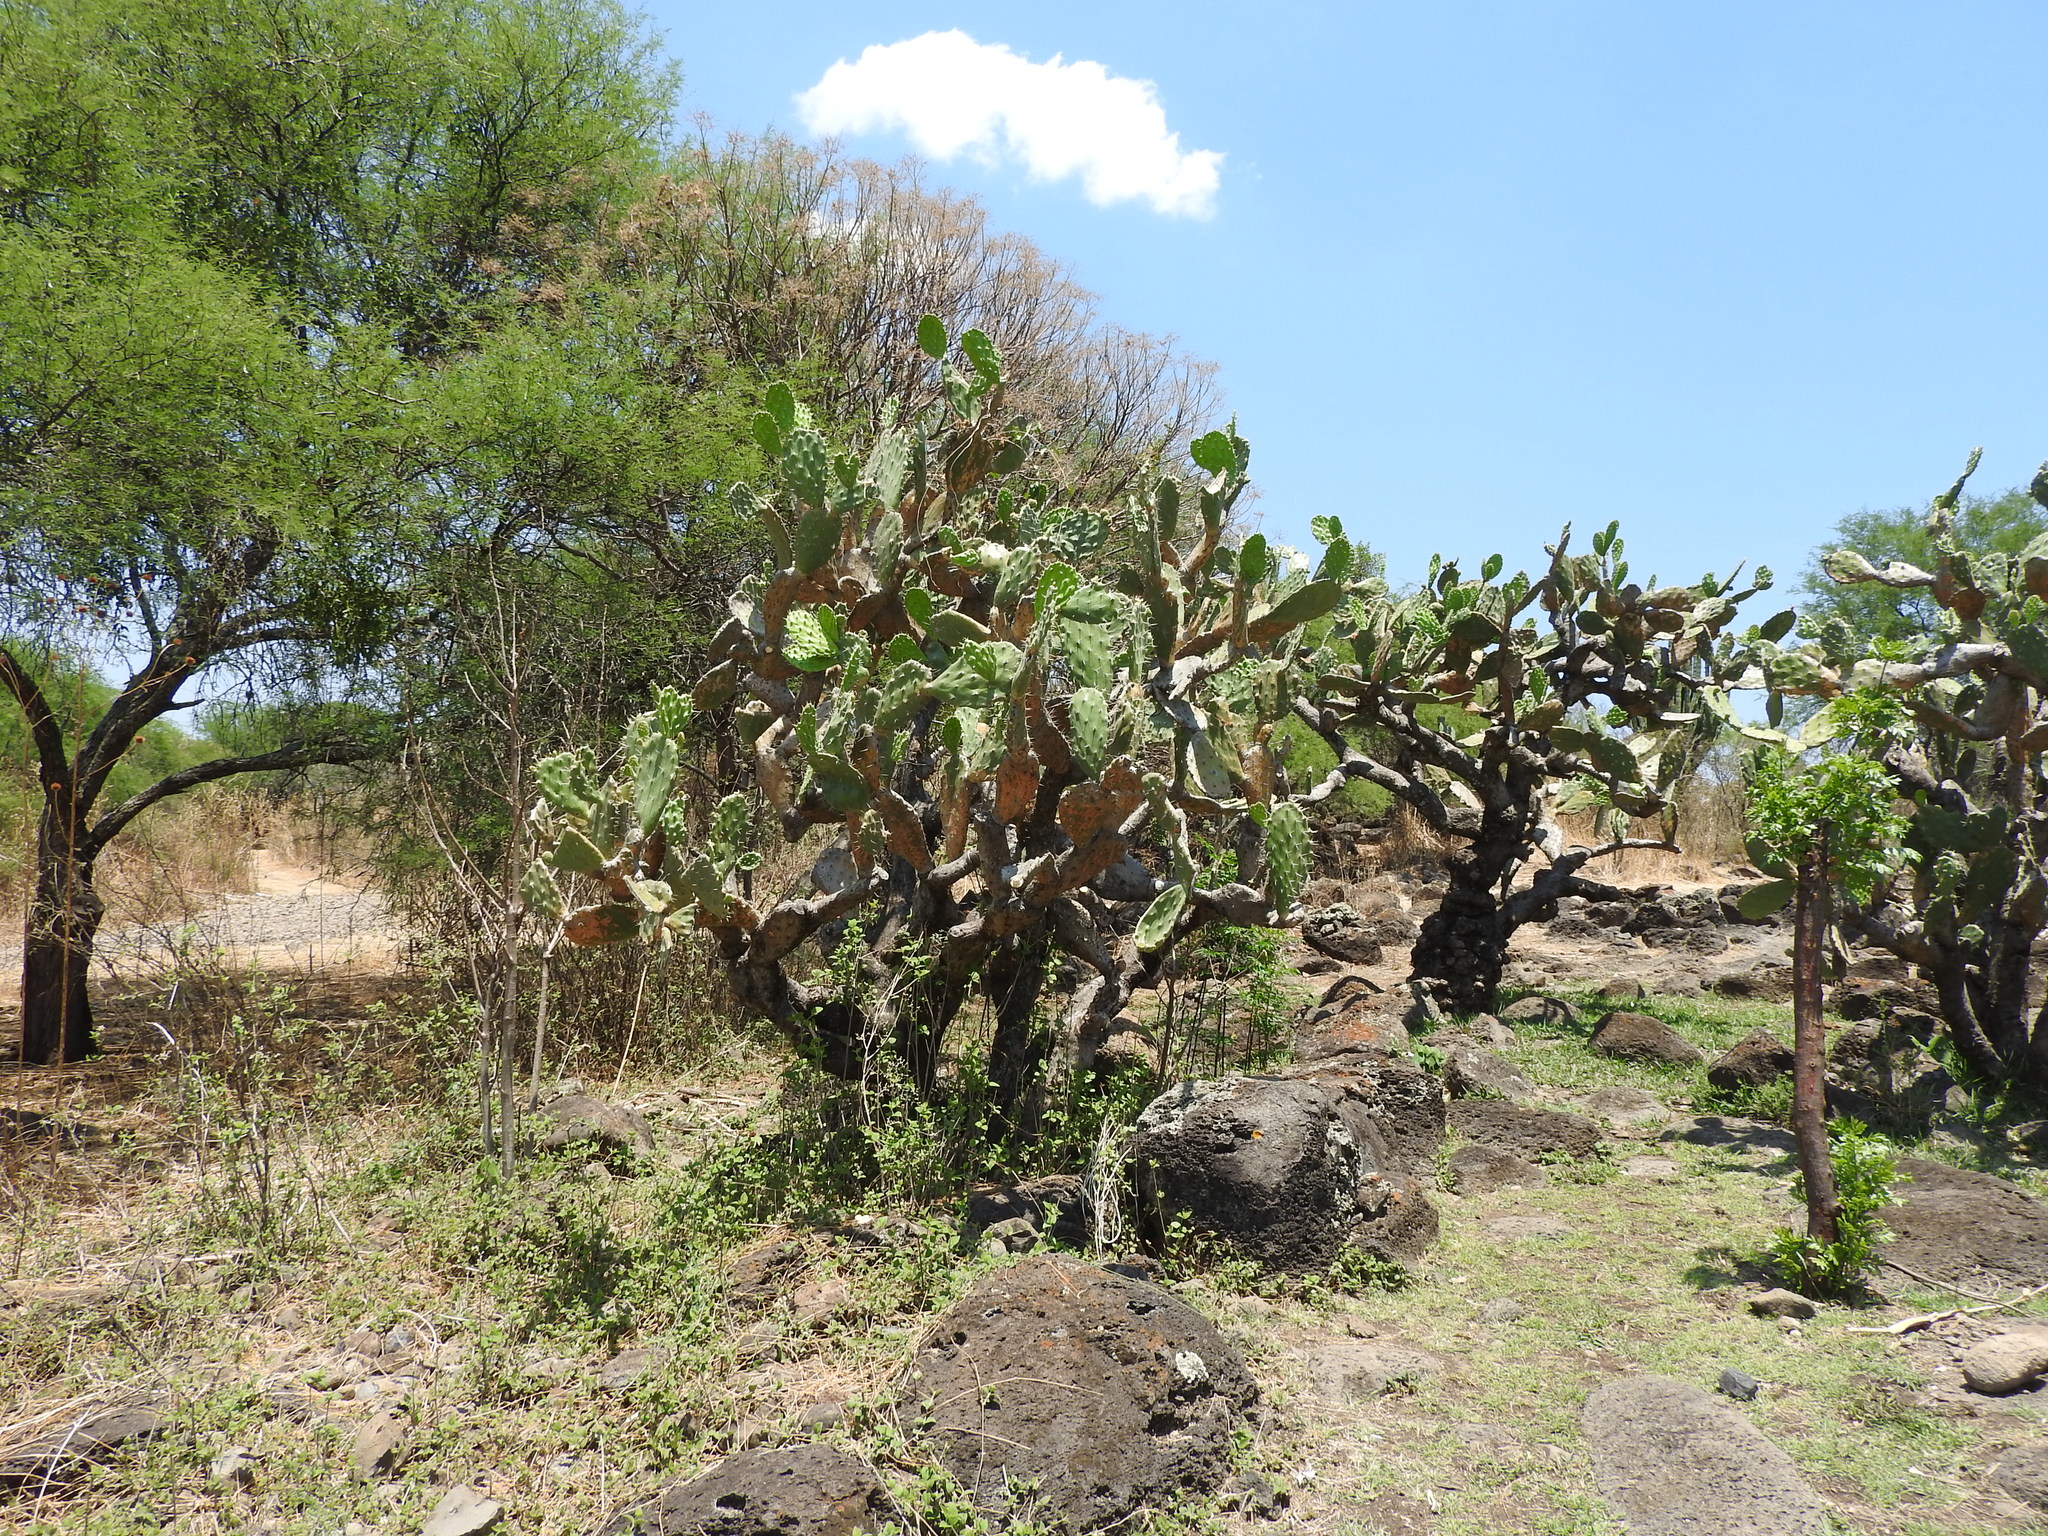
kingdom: Plantae
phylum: Tracheophyta
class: Magnoliopsida
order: Caryophyllales
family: Cactaceae
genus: Opuntia
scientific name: Opuntia lasiacantha
